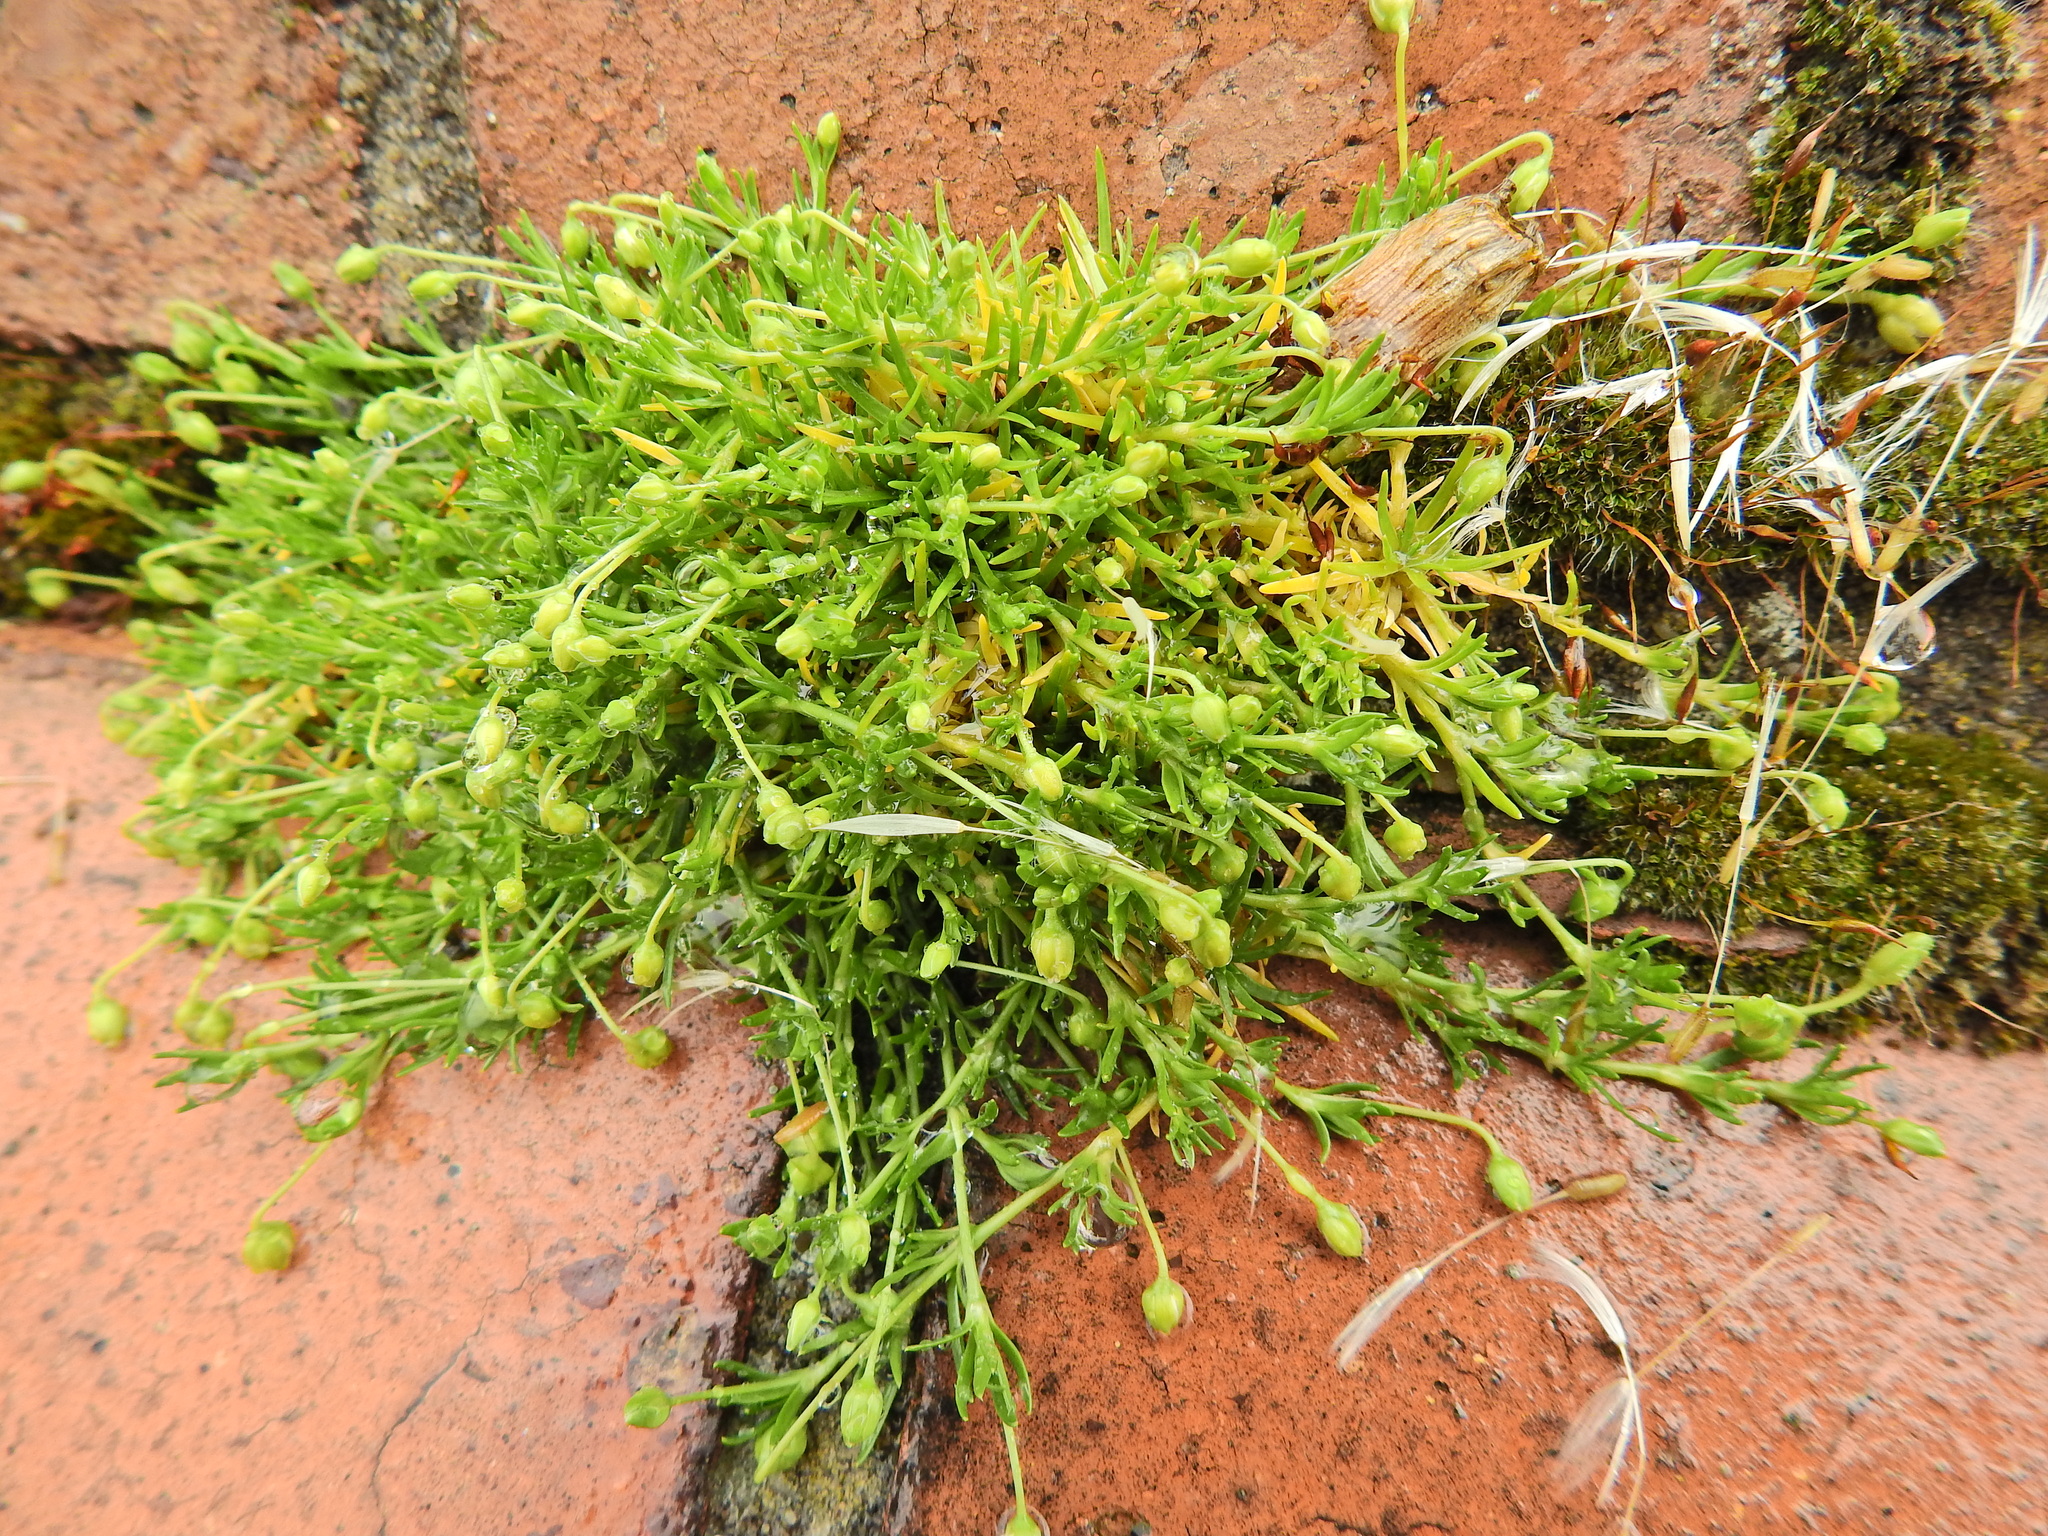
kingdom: Plantae
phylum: Tracheophyta
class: Magnoliopsida
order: Caryophyllales
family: Caryophyllaceae
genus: Sagina
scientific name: Sagina procumbens
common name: Procumbent pearlwort
